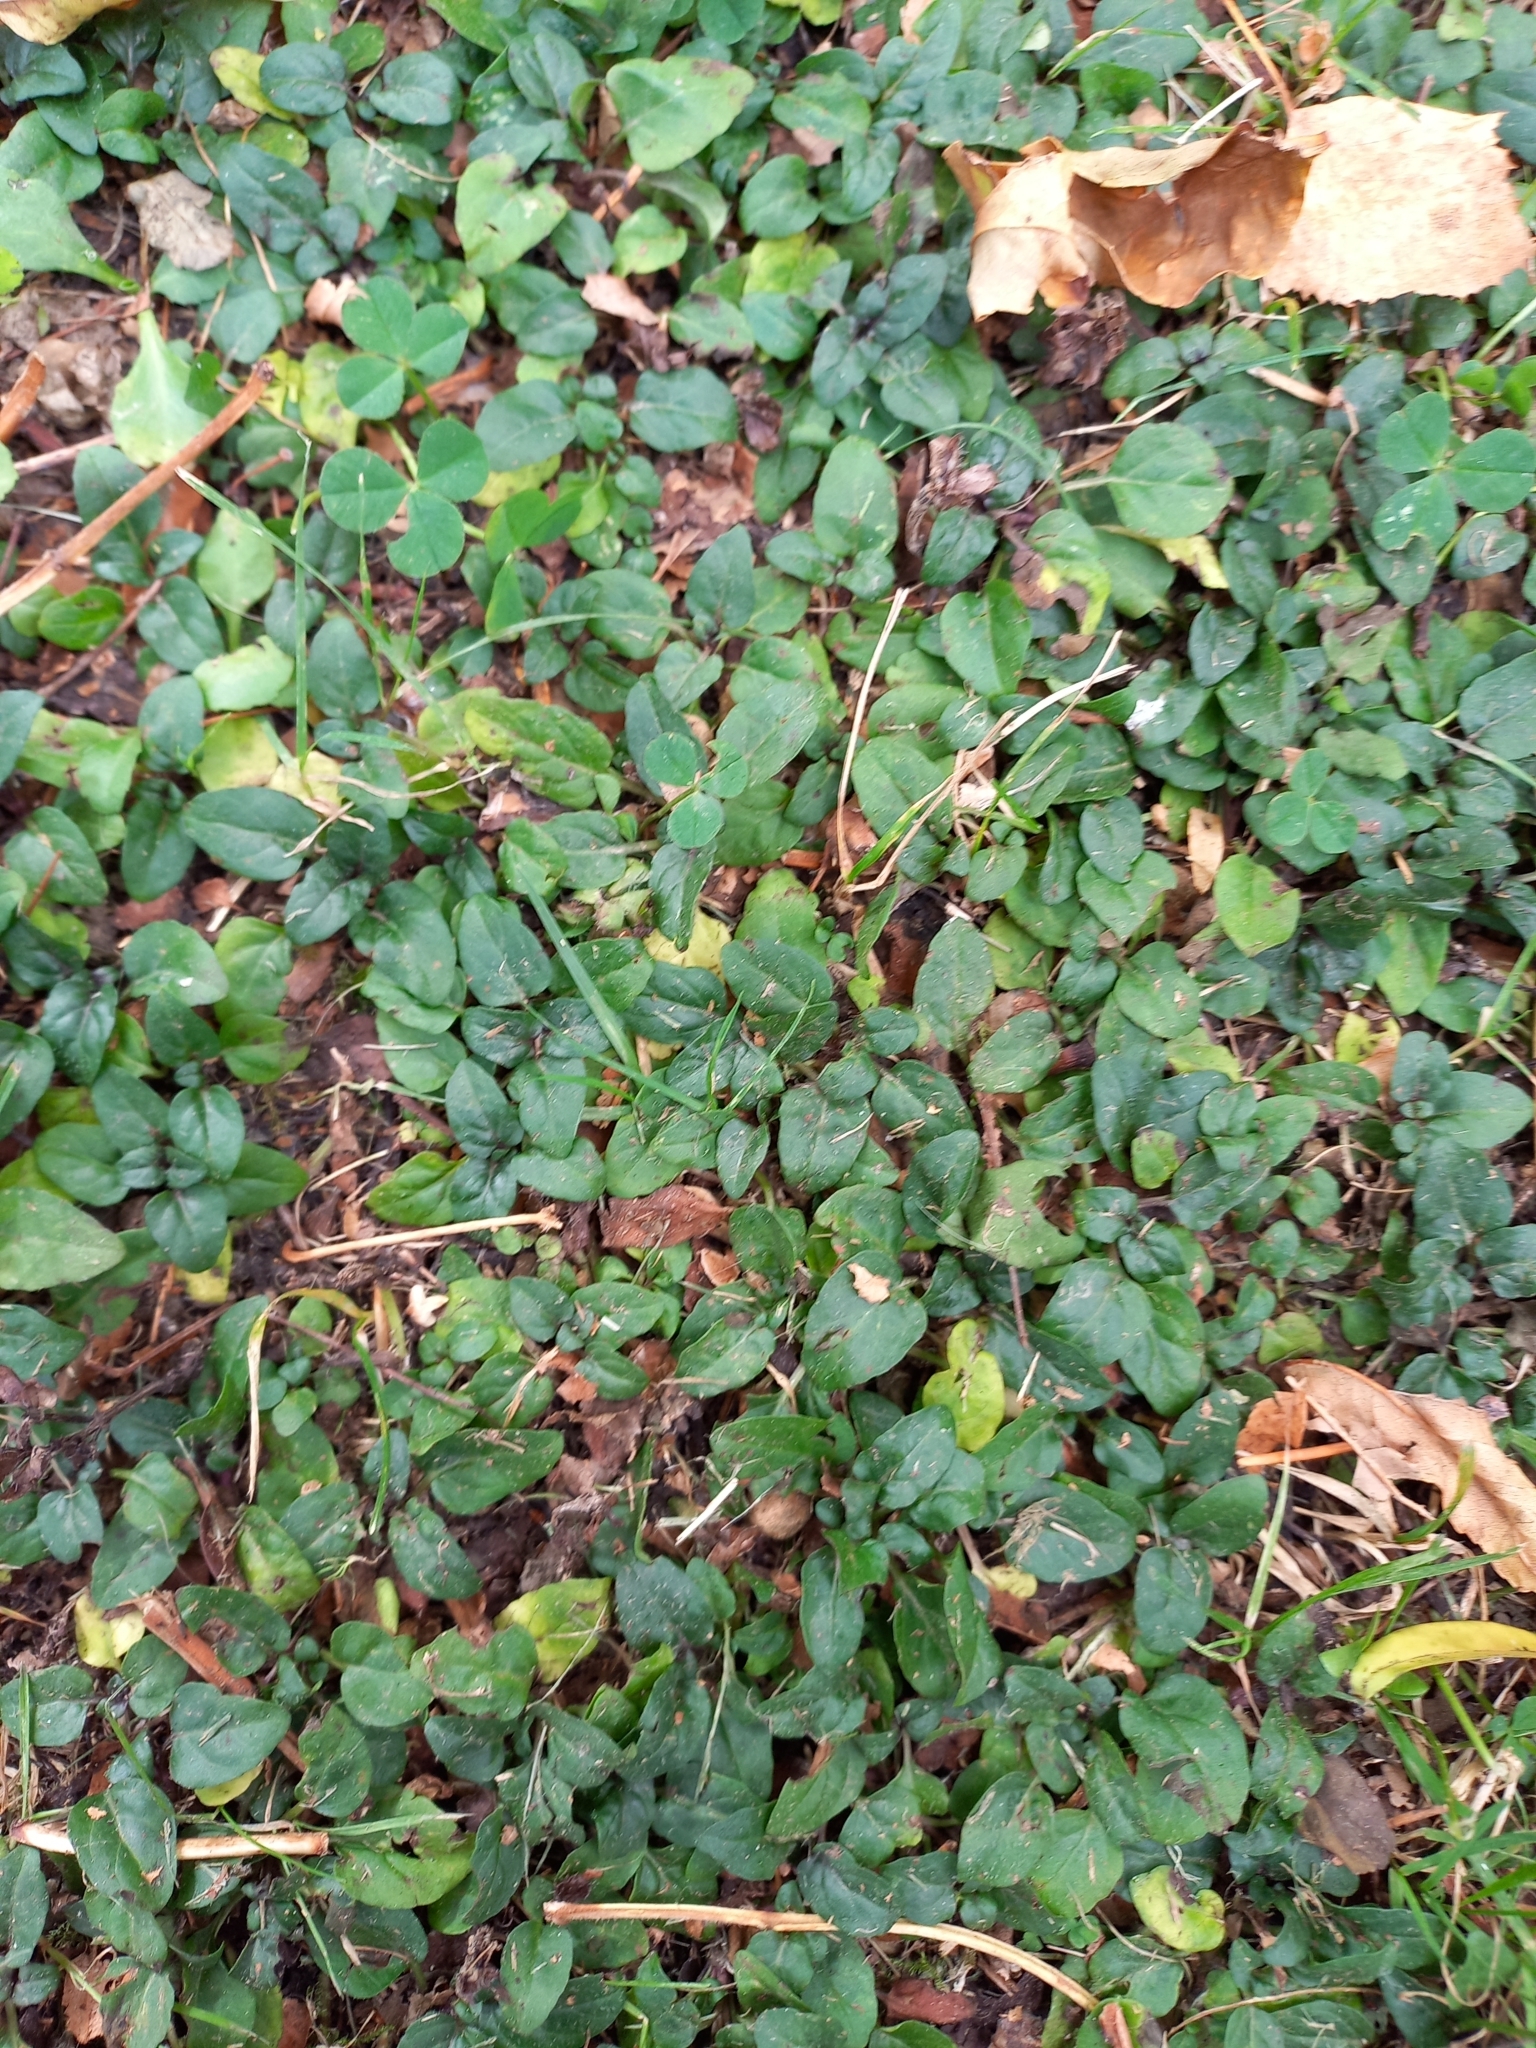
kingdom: Plantae
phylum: Tracheophyta
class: Magnoliopsida
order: Lamiales
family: Lamiaceae
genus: Prunella
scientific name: Prunella vulgaris
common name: Heal-all
